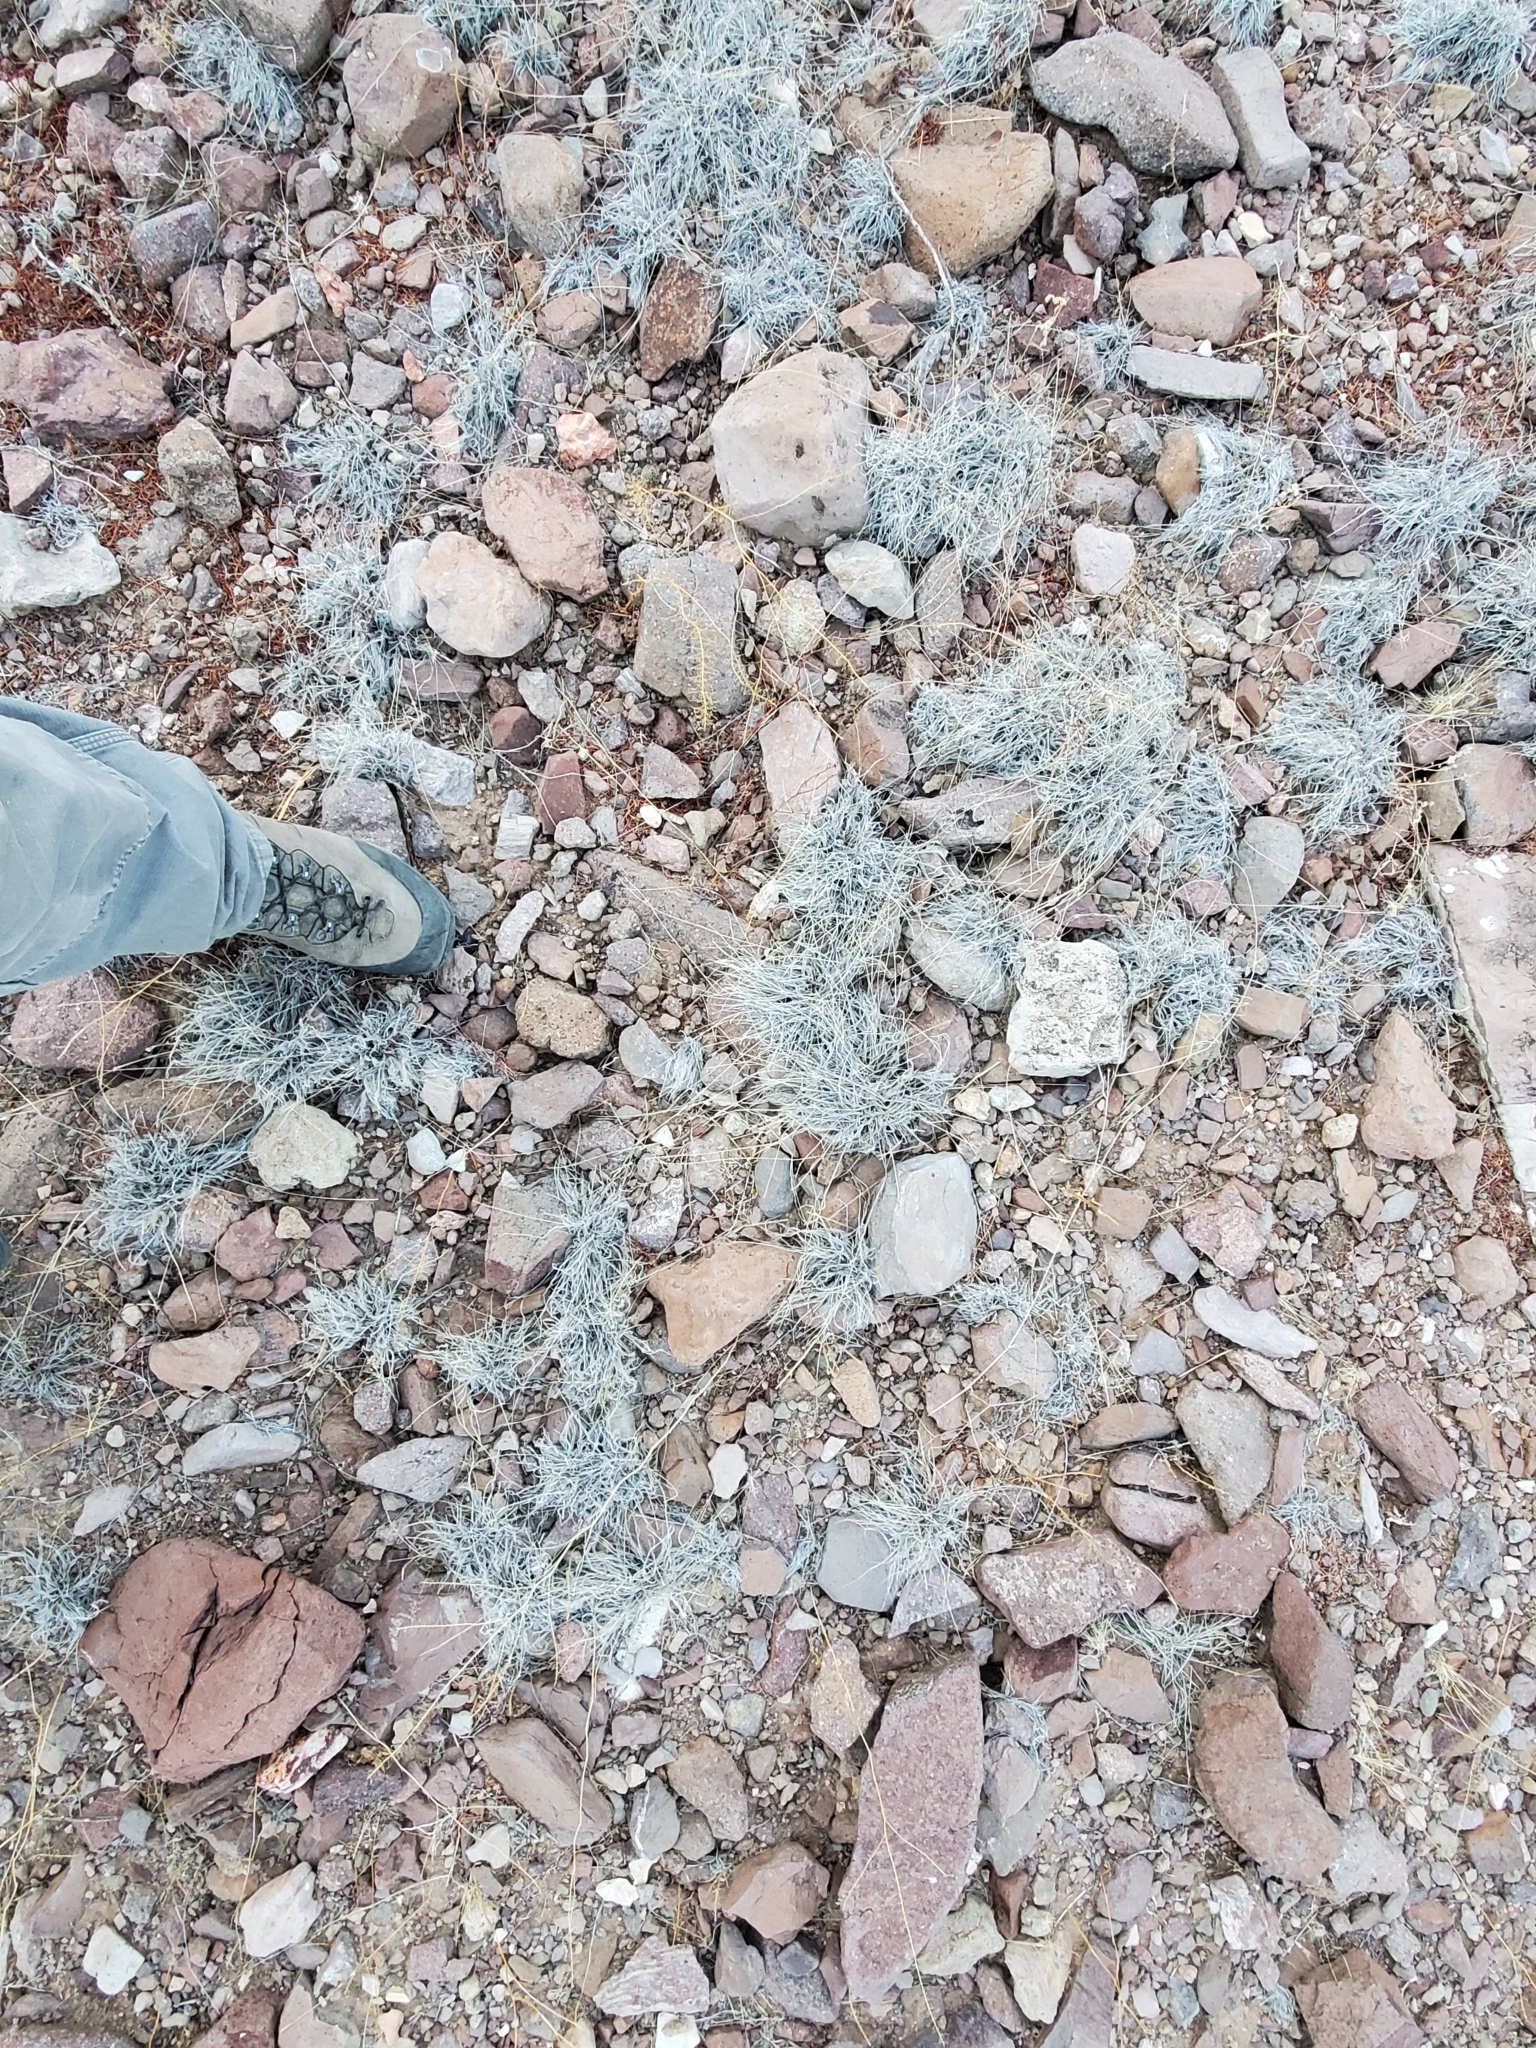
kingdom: Plantae
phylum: Tracheophyta
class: Liliopsida
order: Poales
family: Poaceae
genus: Dasyochloa
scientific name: Dasyochloa pulchella
